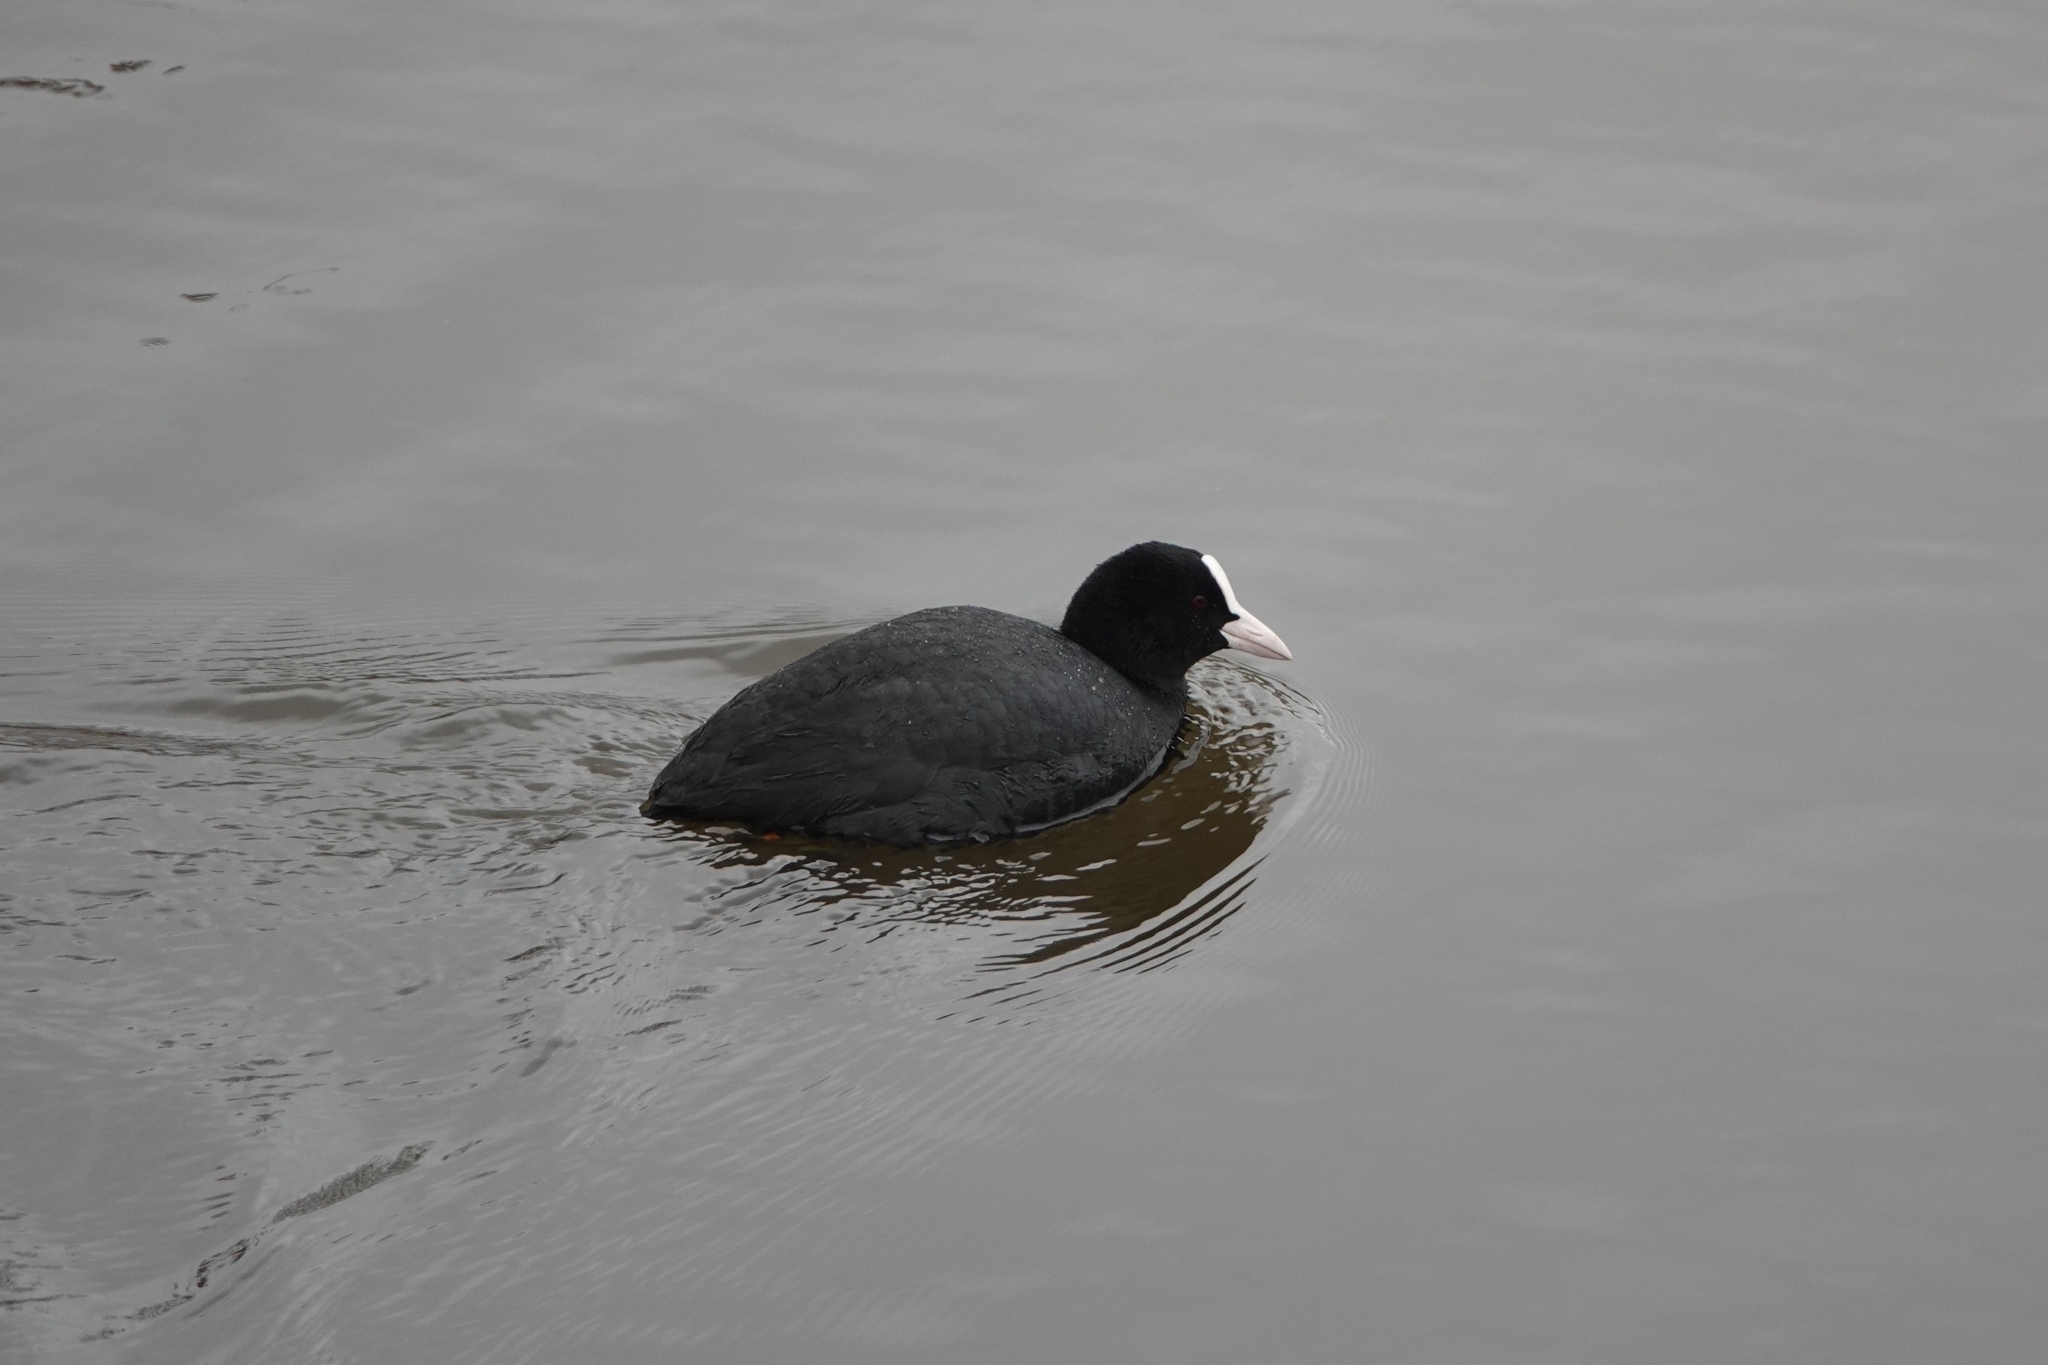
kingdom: Animalia
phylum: Chordata
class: Aves
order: Gruiformes
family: Rallidae
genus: Fulica
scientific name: Fulica atra
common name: Eurasian coot
